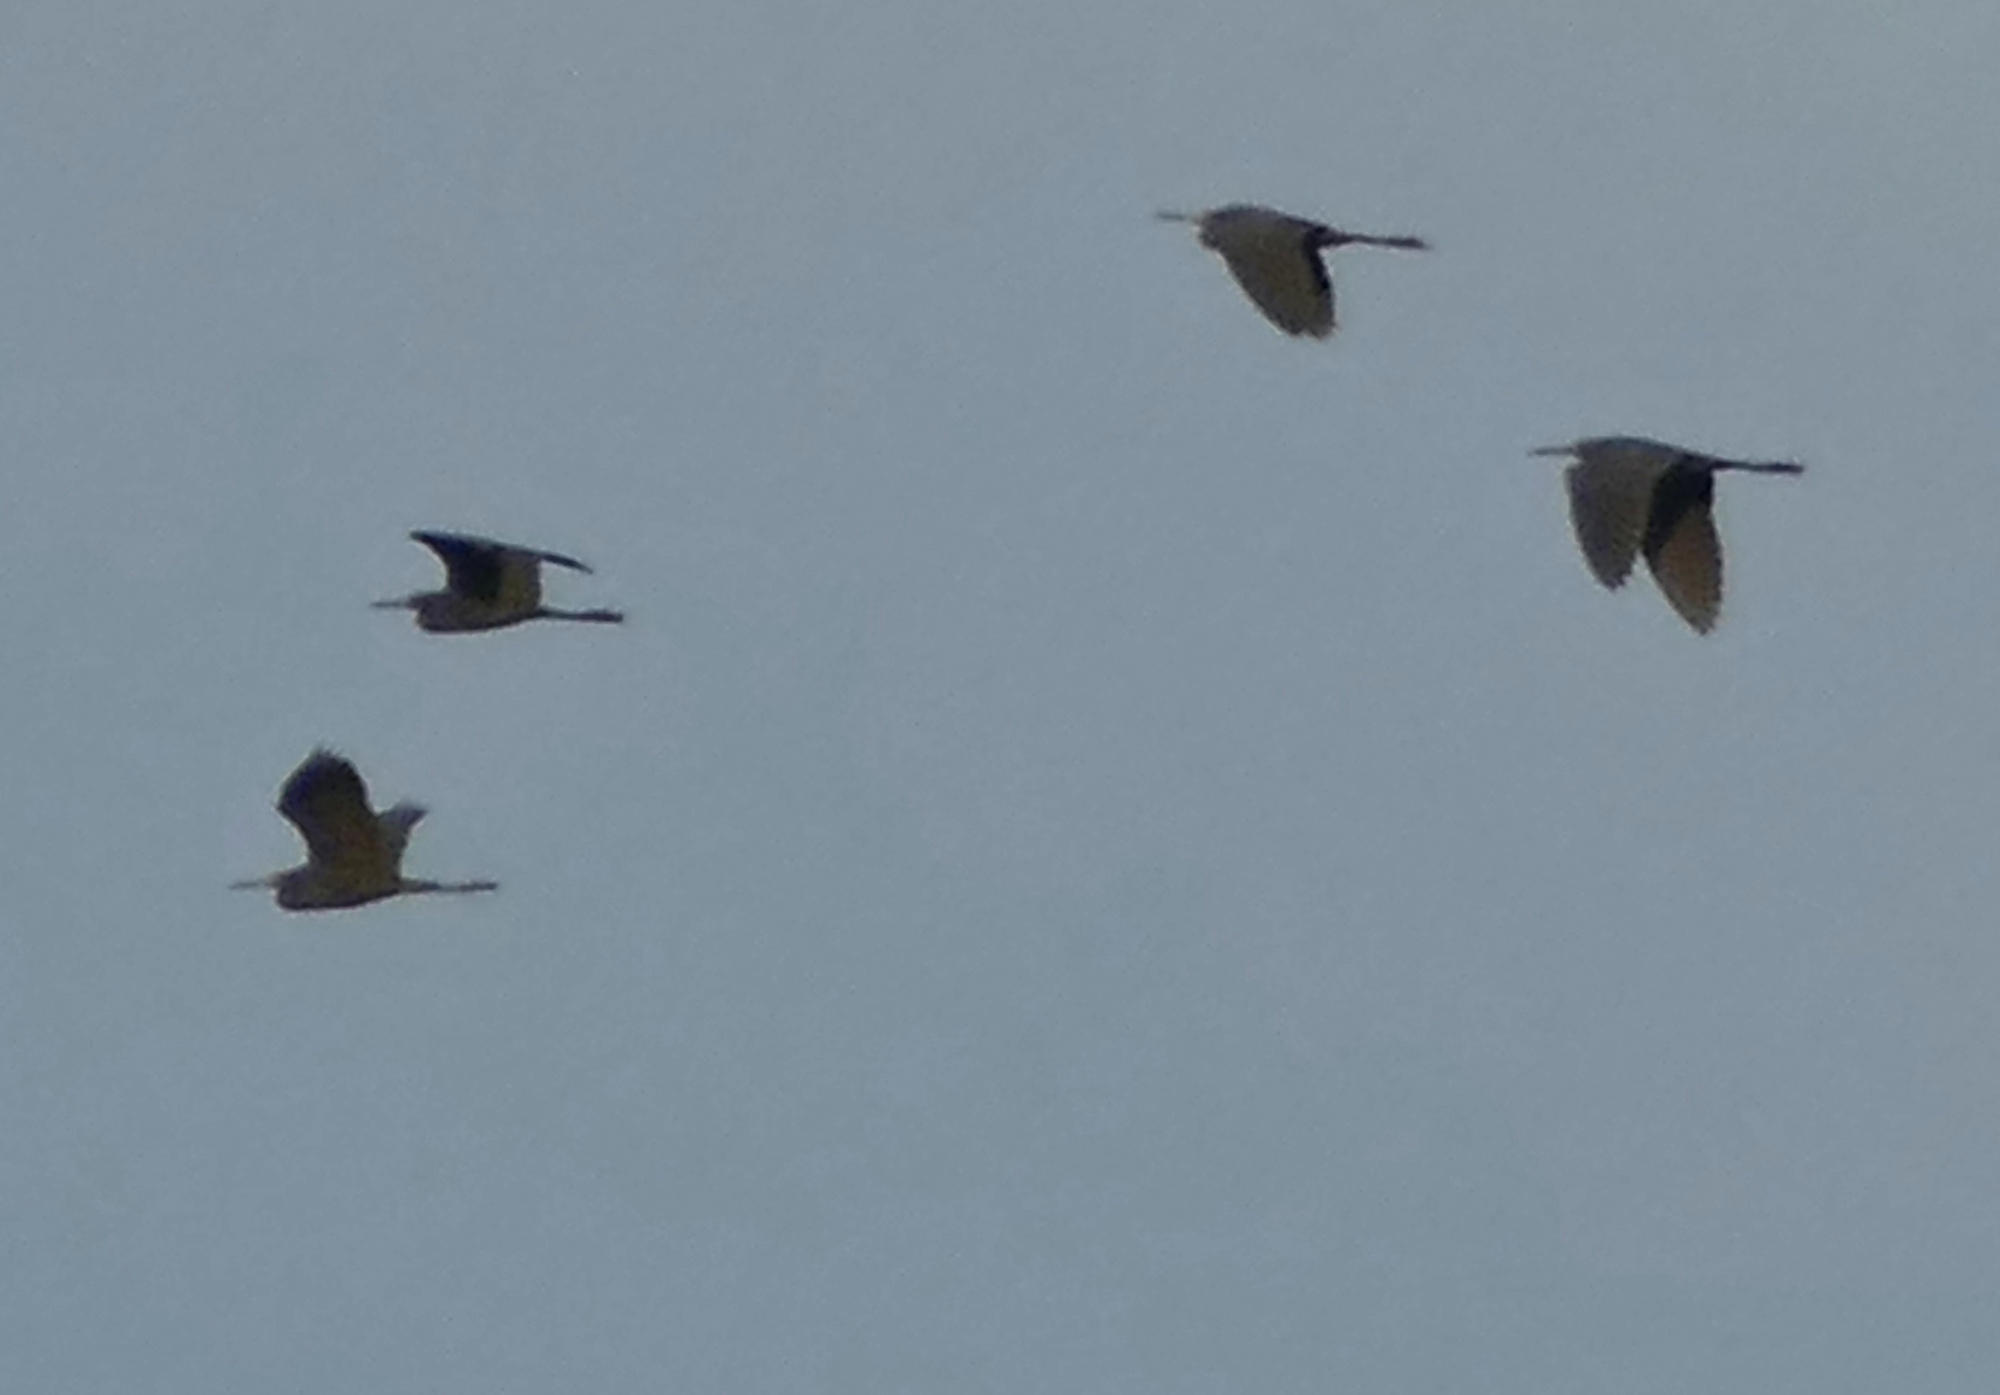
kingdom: Animalia
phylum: Chordata
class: Aves
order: Pelecaniformes
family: Ardeidae
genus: Egretta
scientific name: Egretta caerulea
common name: Little blue heron
